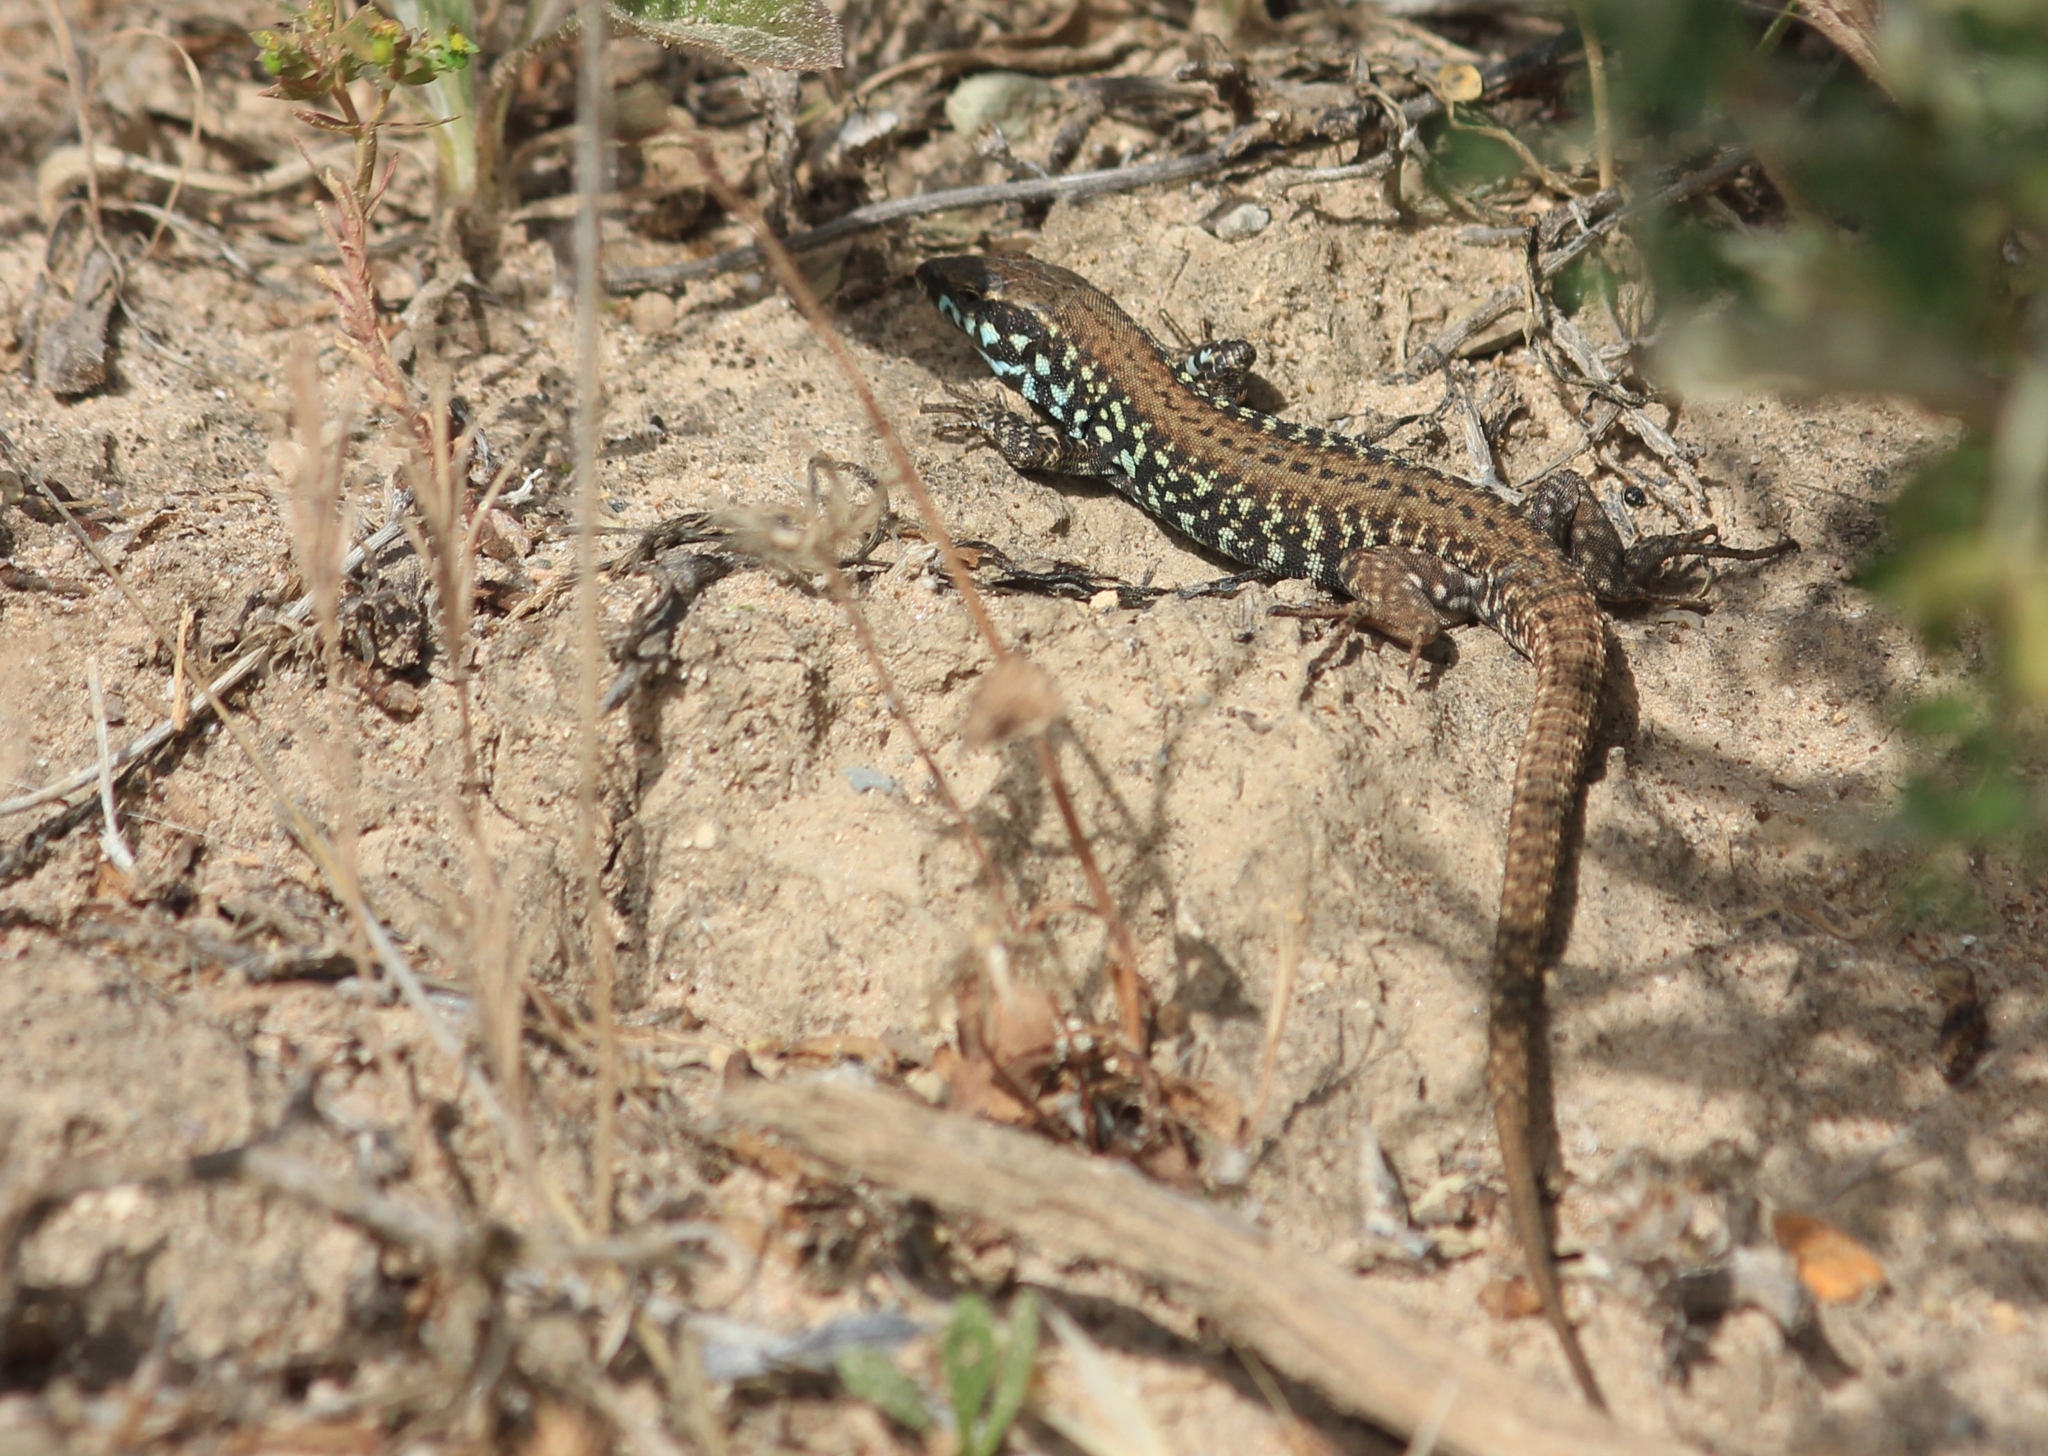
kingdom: Animalia
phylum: Chordata
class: Squamata
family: Lacertidae
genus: Podarcis
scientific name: Podarcis milensis
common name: Milos wall lizard
